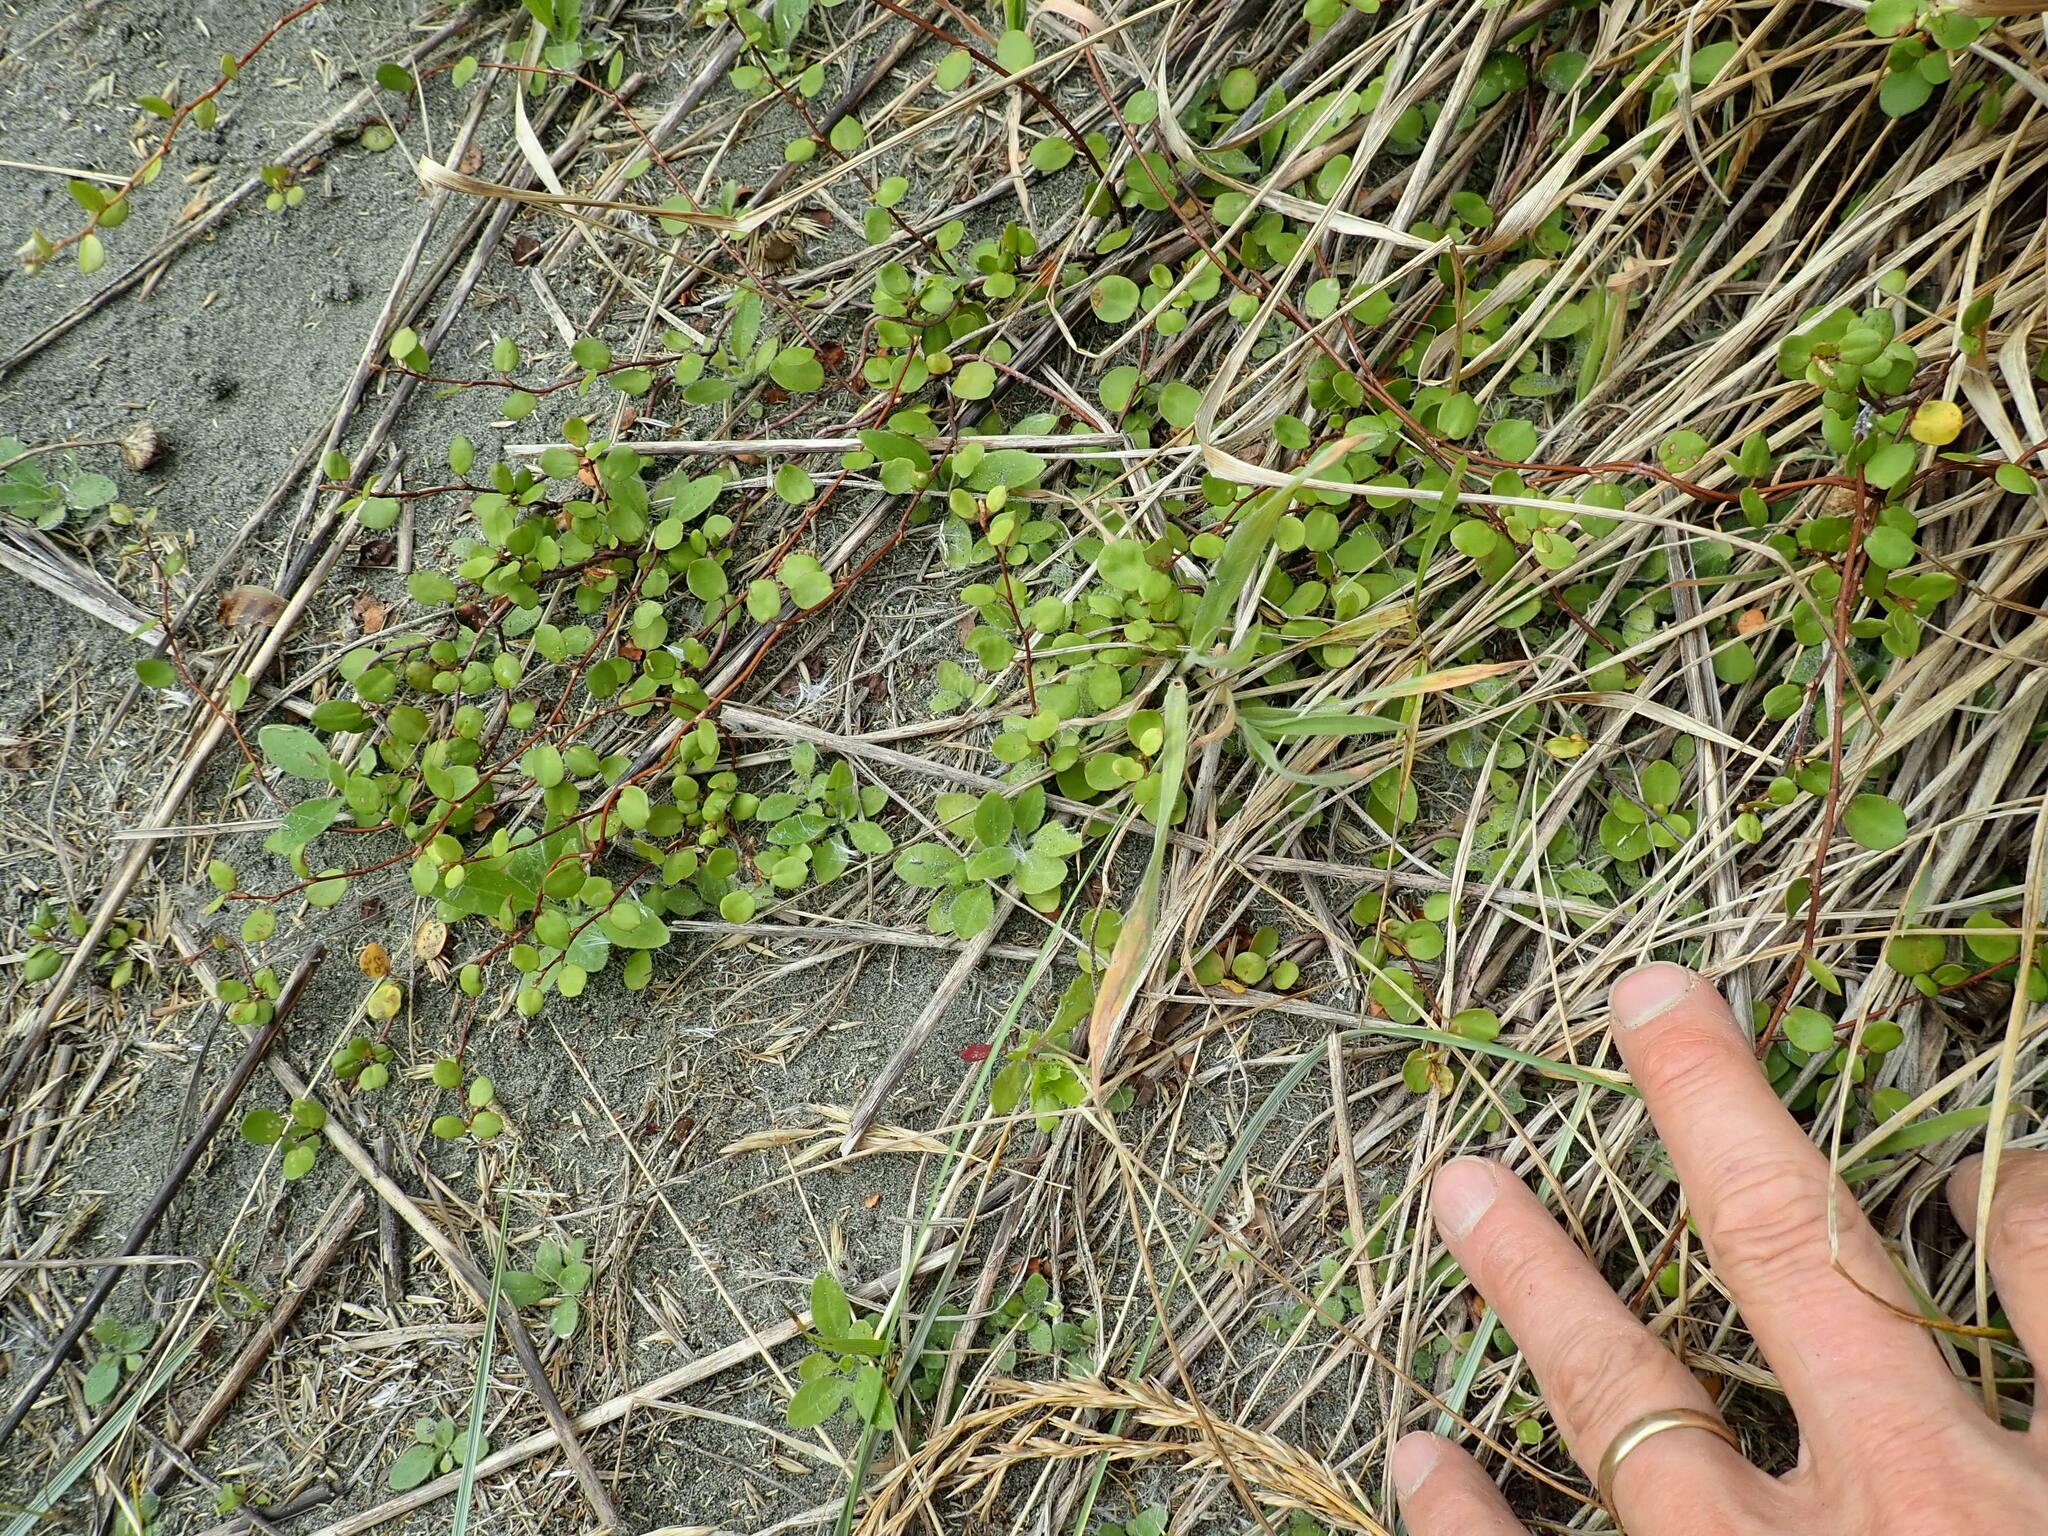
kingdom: Plantae
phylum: Tracheophyta
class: Magnoliopsida
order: Caryophyllales
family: Polygonaceae
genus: Muehlenbeckia
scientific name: Muehlenbeckia complexa
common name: Wireplant
